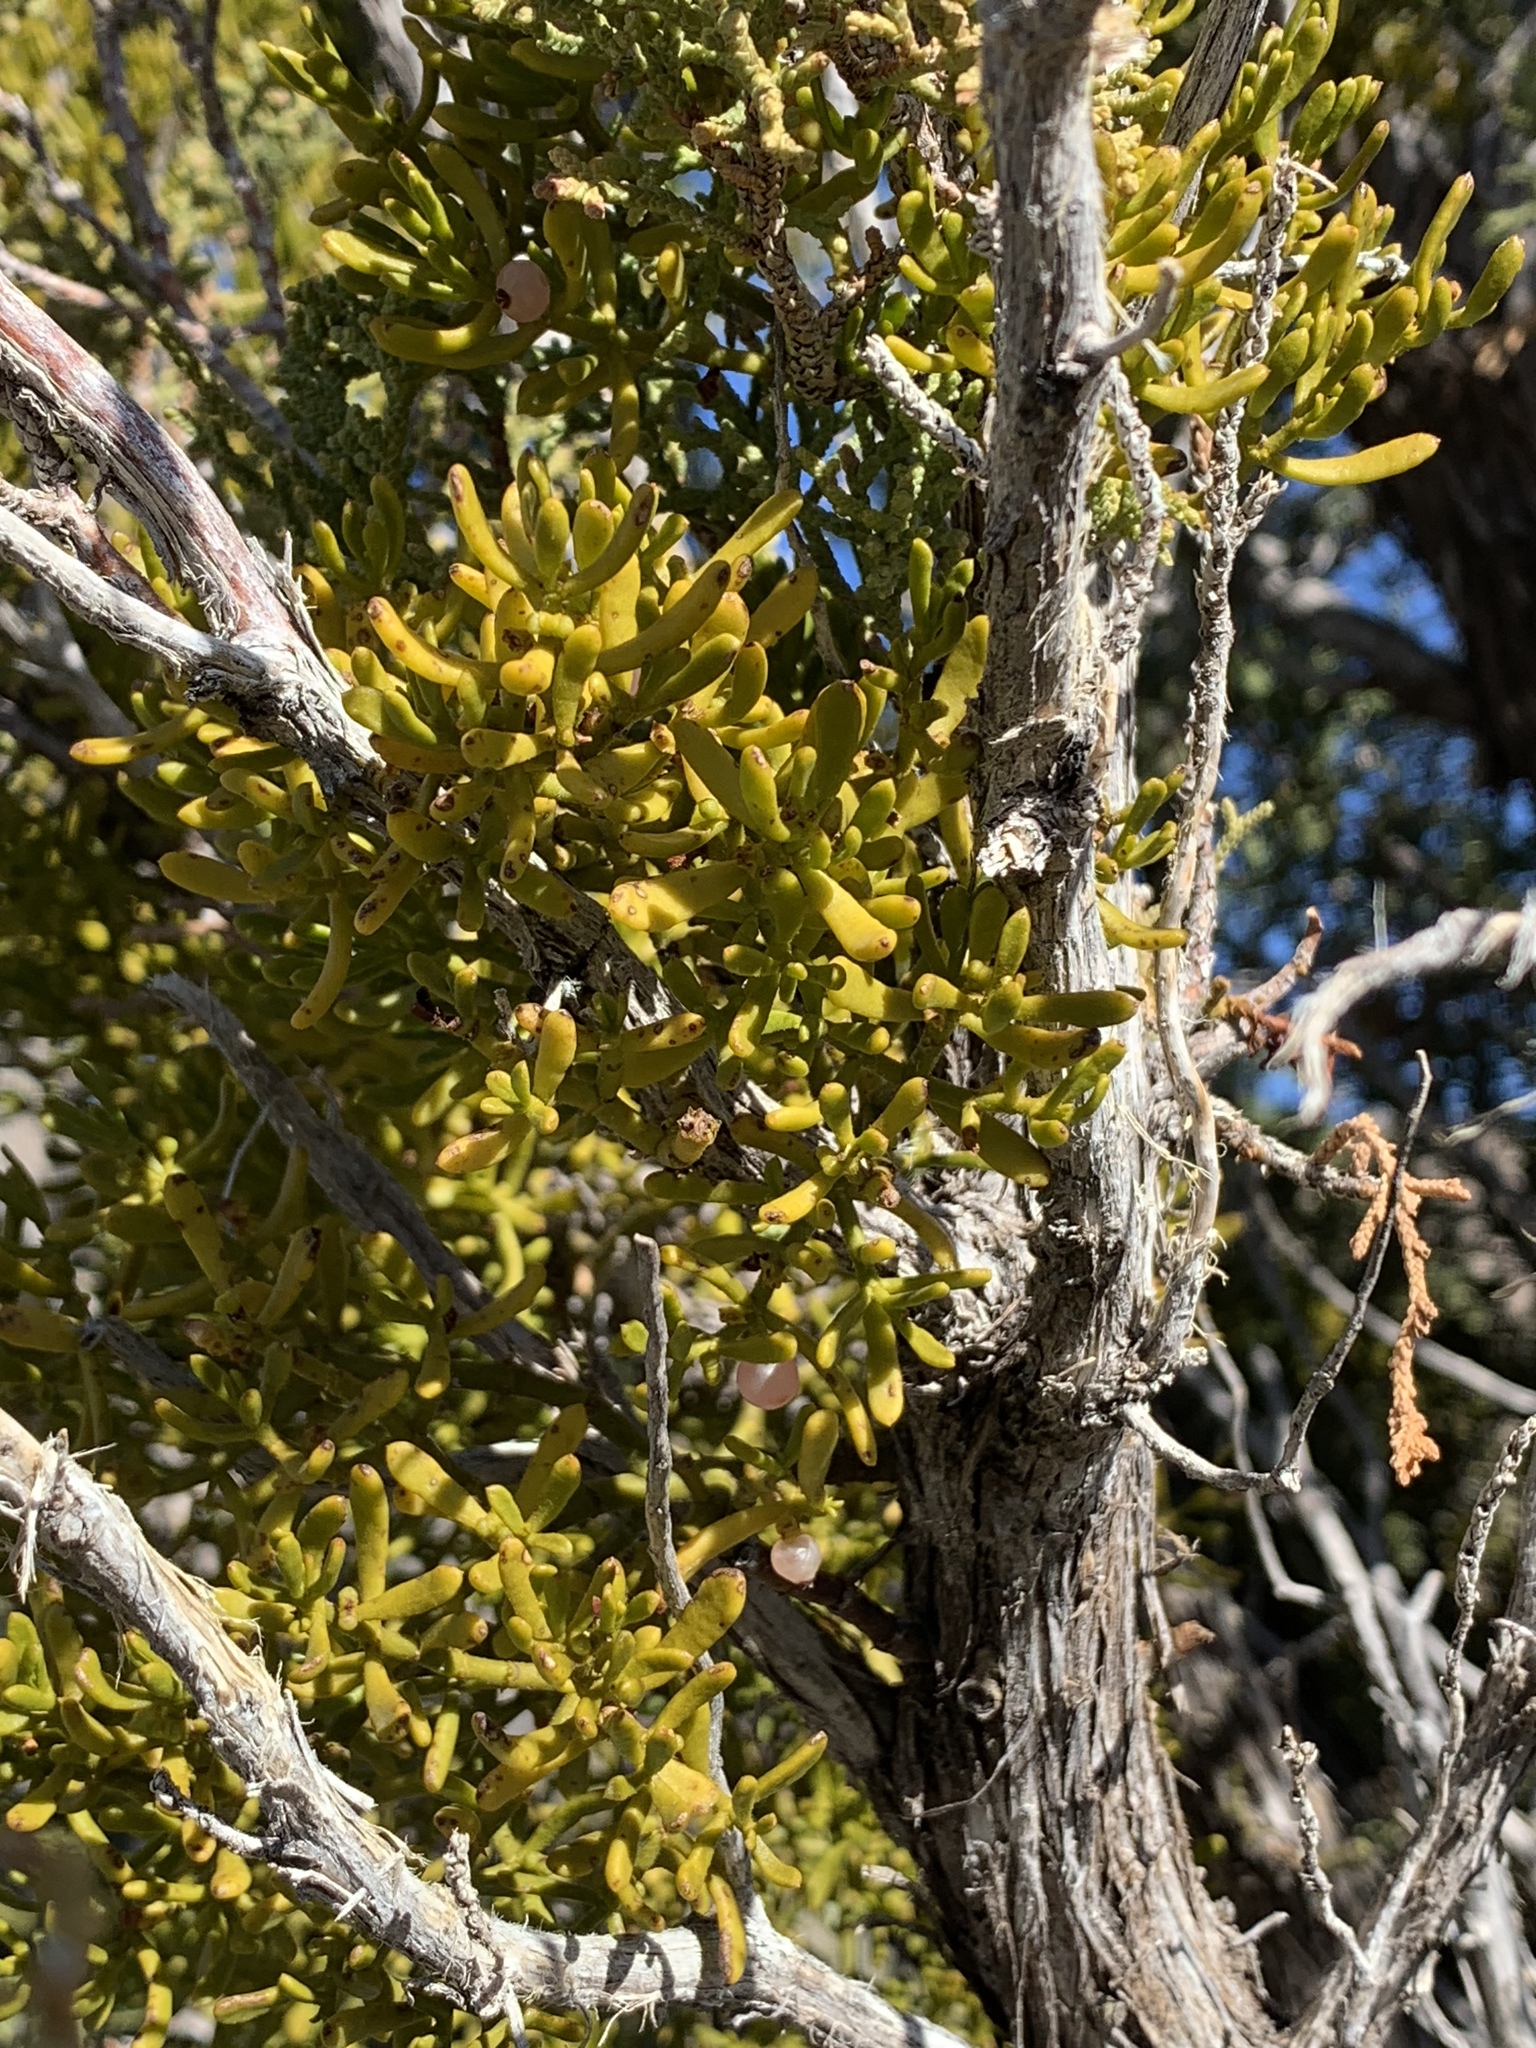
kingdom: Plantae
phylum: Tracheophyta
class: Magnoliopsida
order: Santalales
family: Viscaceae
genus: Phoradendron
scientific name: Phoradendron hawksworthii
